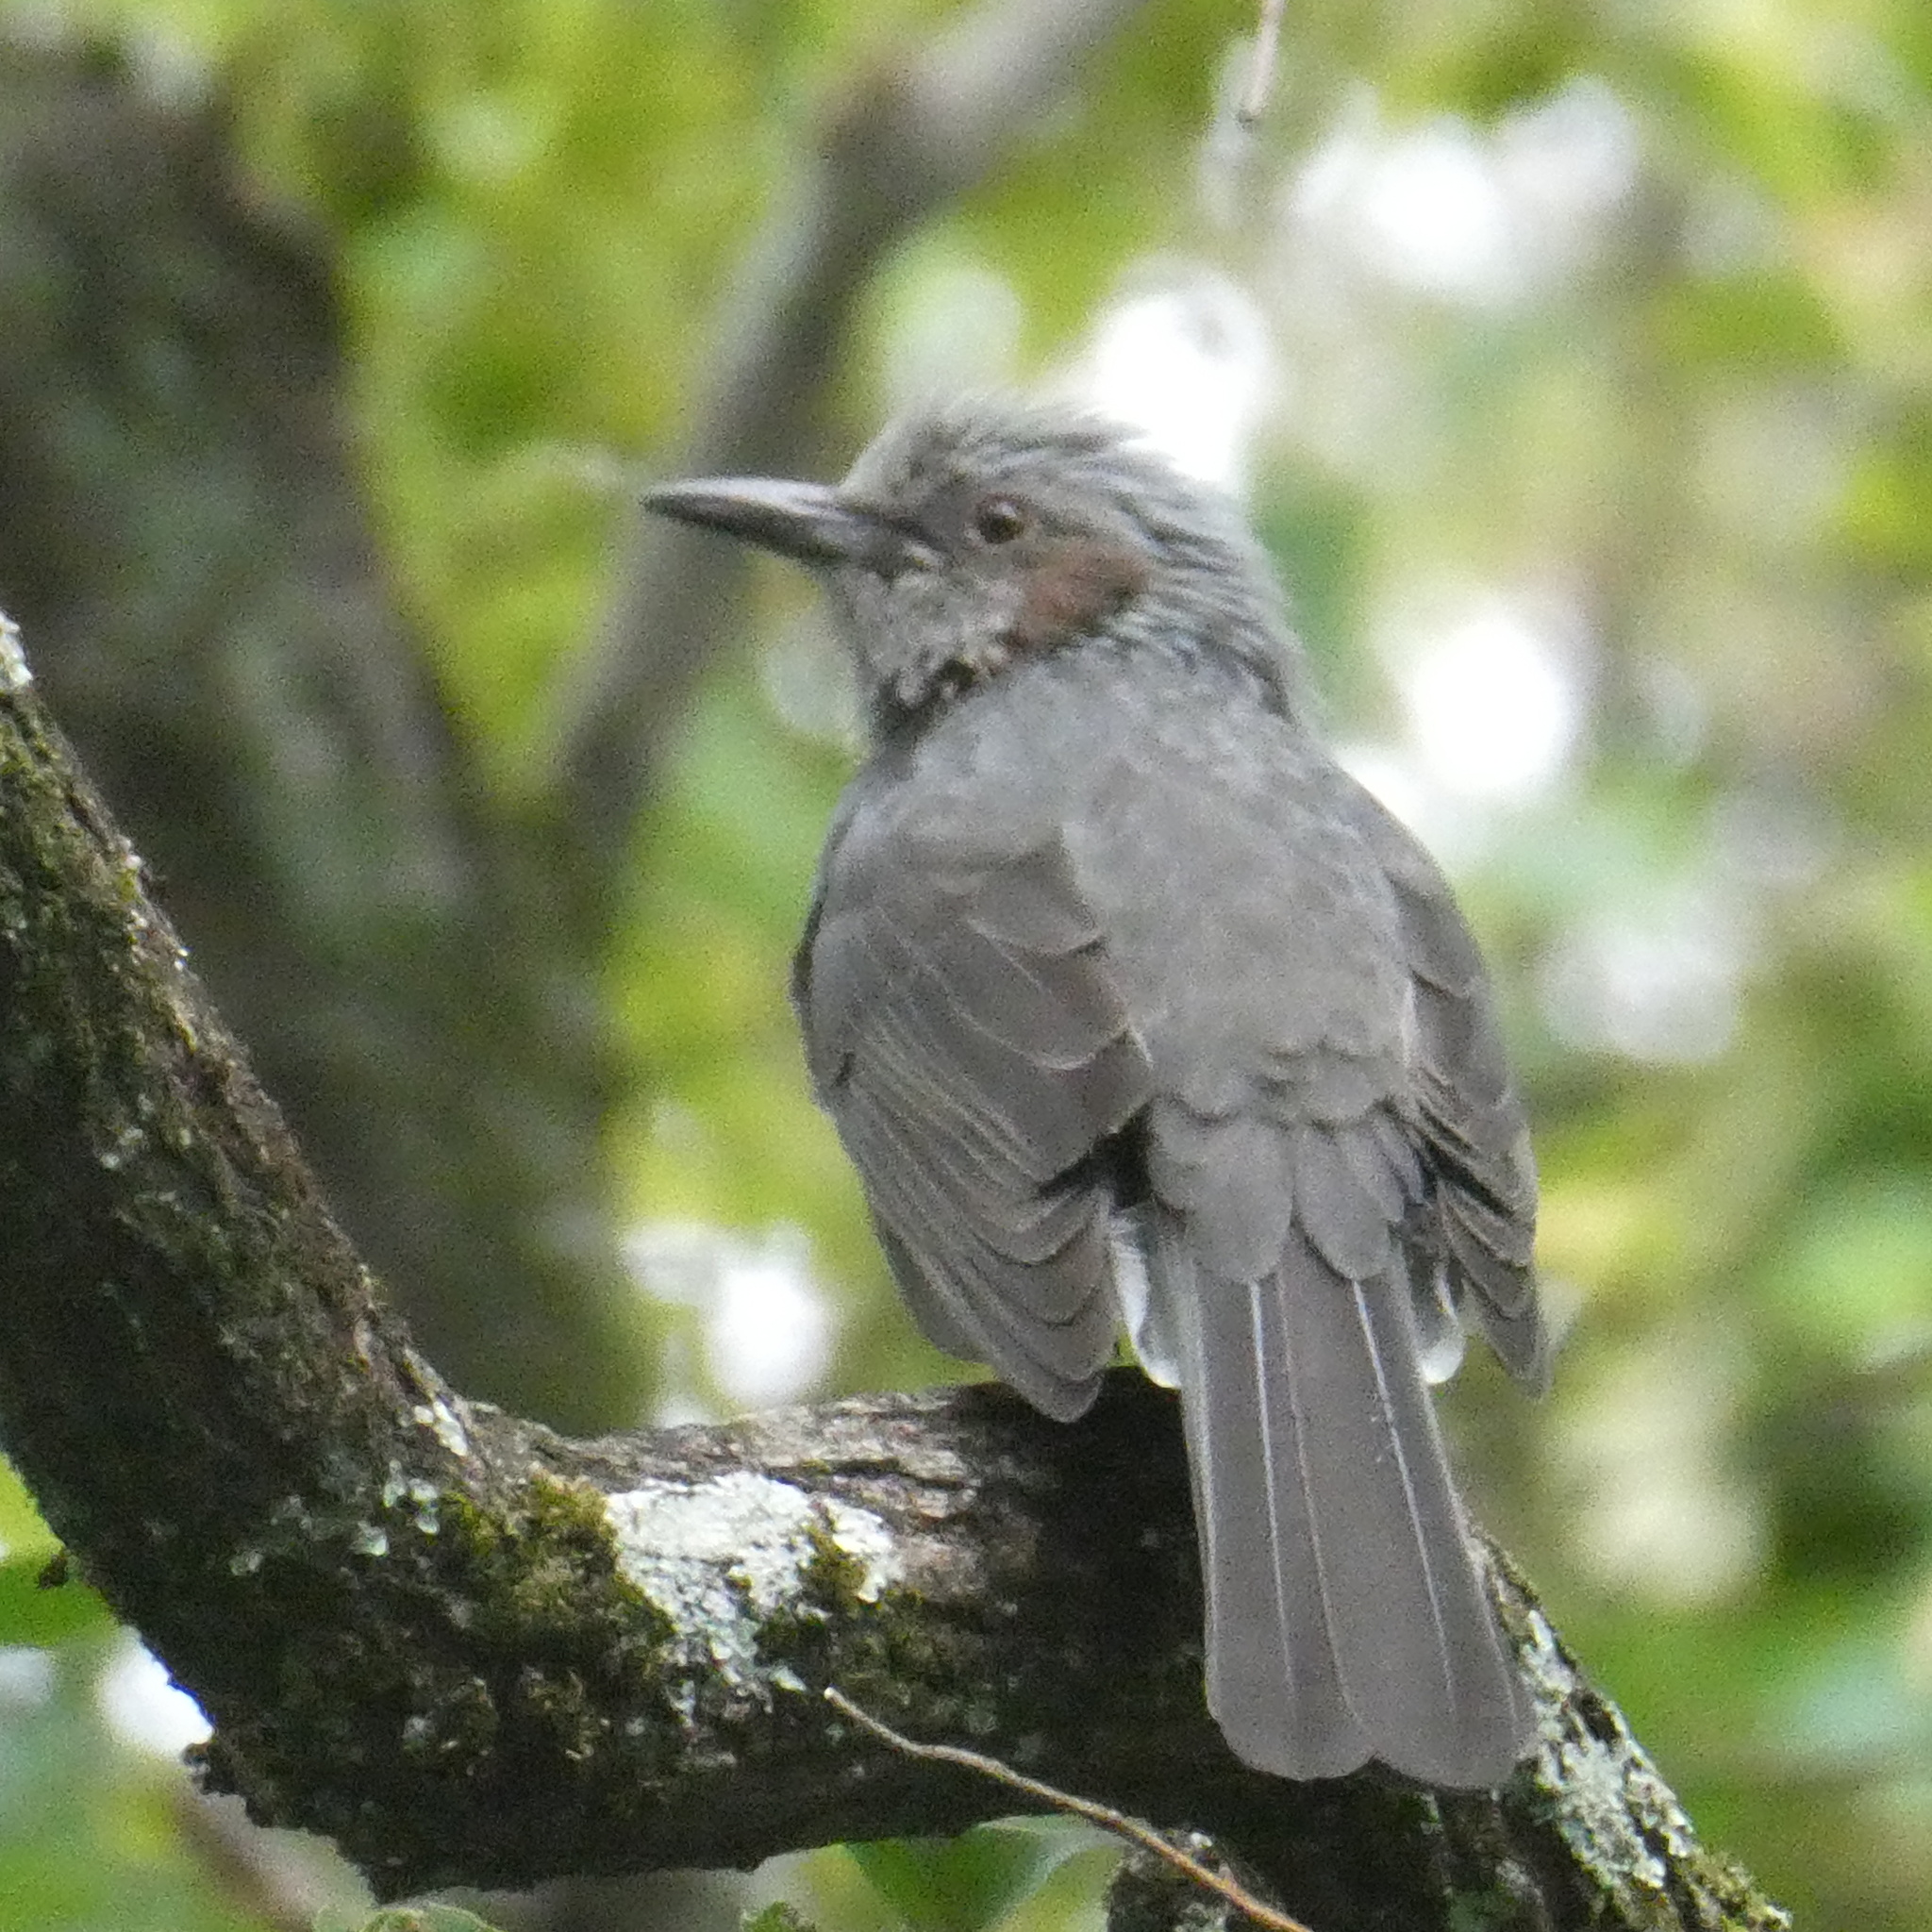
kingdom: Animalia
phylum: Chordata
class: Aves
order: Passeriformes
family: Pycnonotidae
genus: Hypsipetes
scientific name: Hypsipetes amaurotis
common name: Brown-eared bulbul
